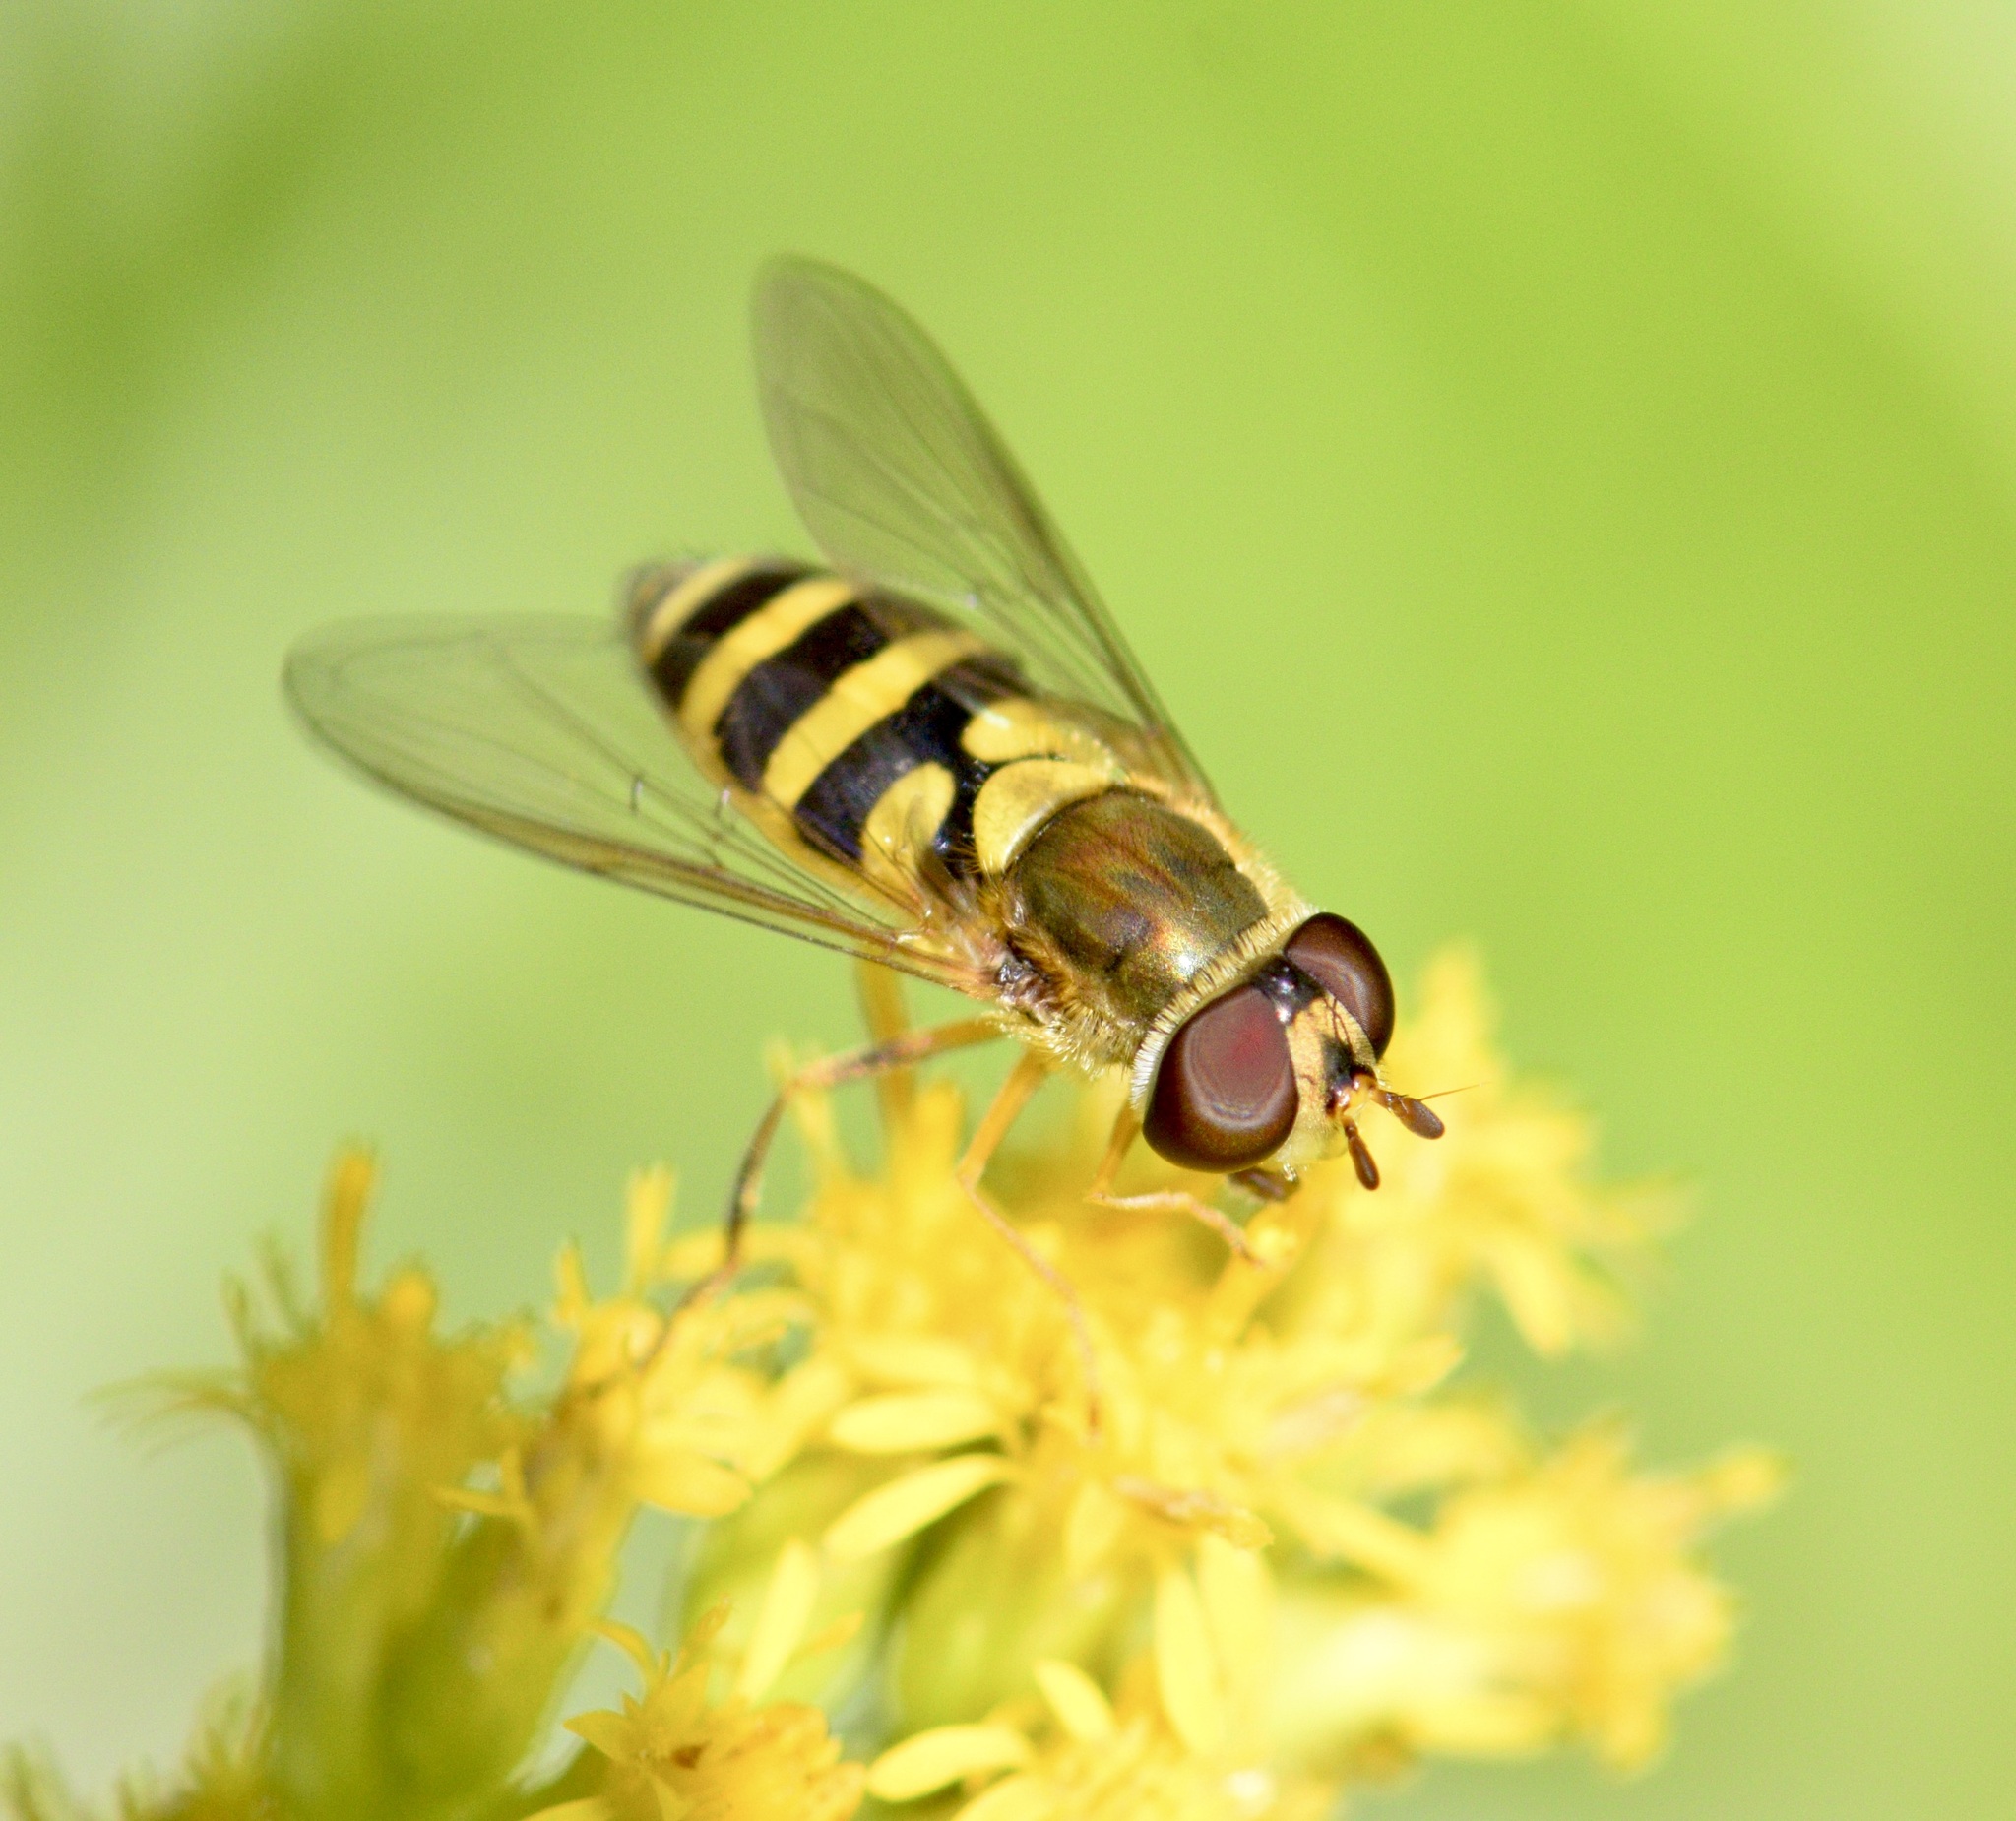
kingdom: Animalia
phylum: Arthropoda
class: Insecta
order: Diptera
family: Syrphidae
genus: Syrphus
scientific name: Syrphus rectus
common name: Yellow-legged flower fly
